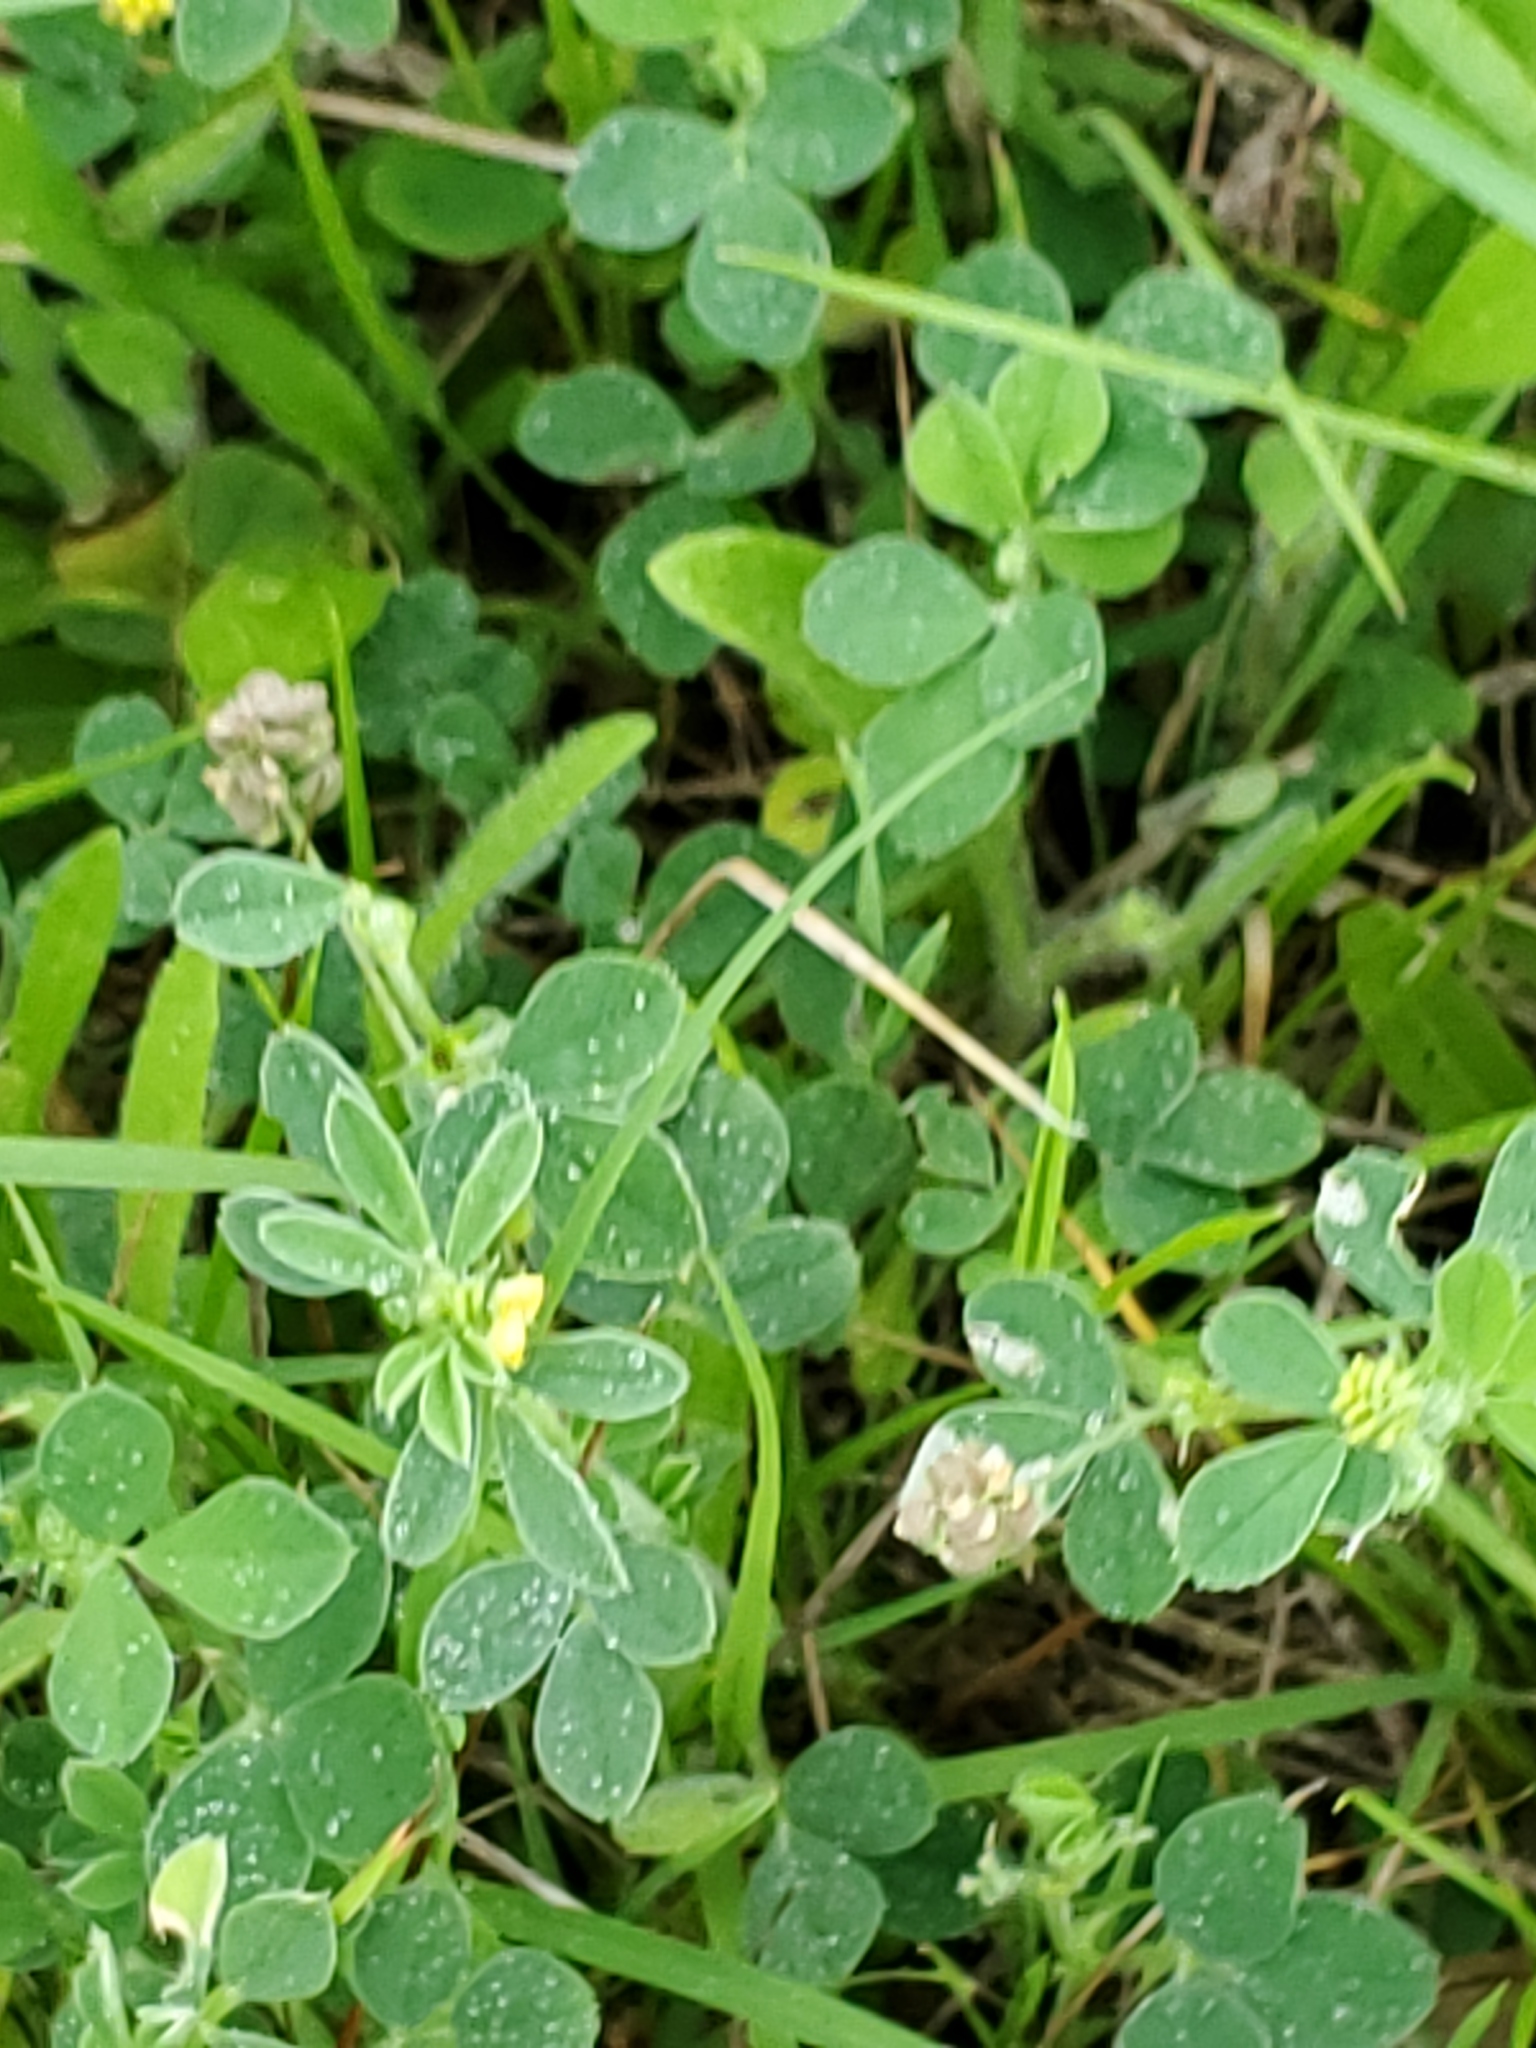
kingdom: Plantae
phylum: Tracheophyta
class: Magnoliopsida
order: Fabales
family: Fabaceae
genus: Medicago
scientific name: Medicago lupulina
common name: Black medick
